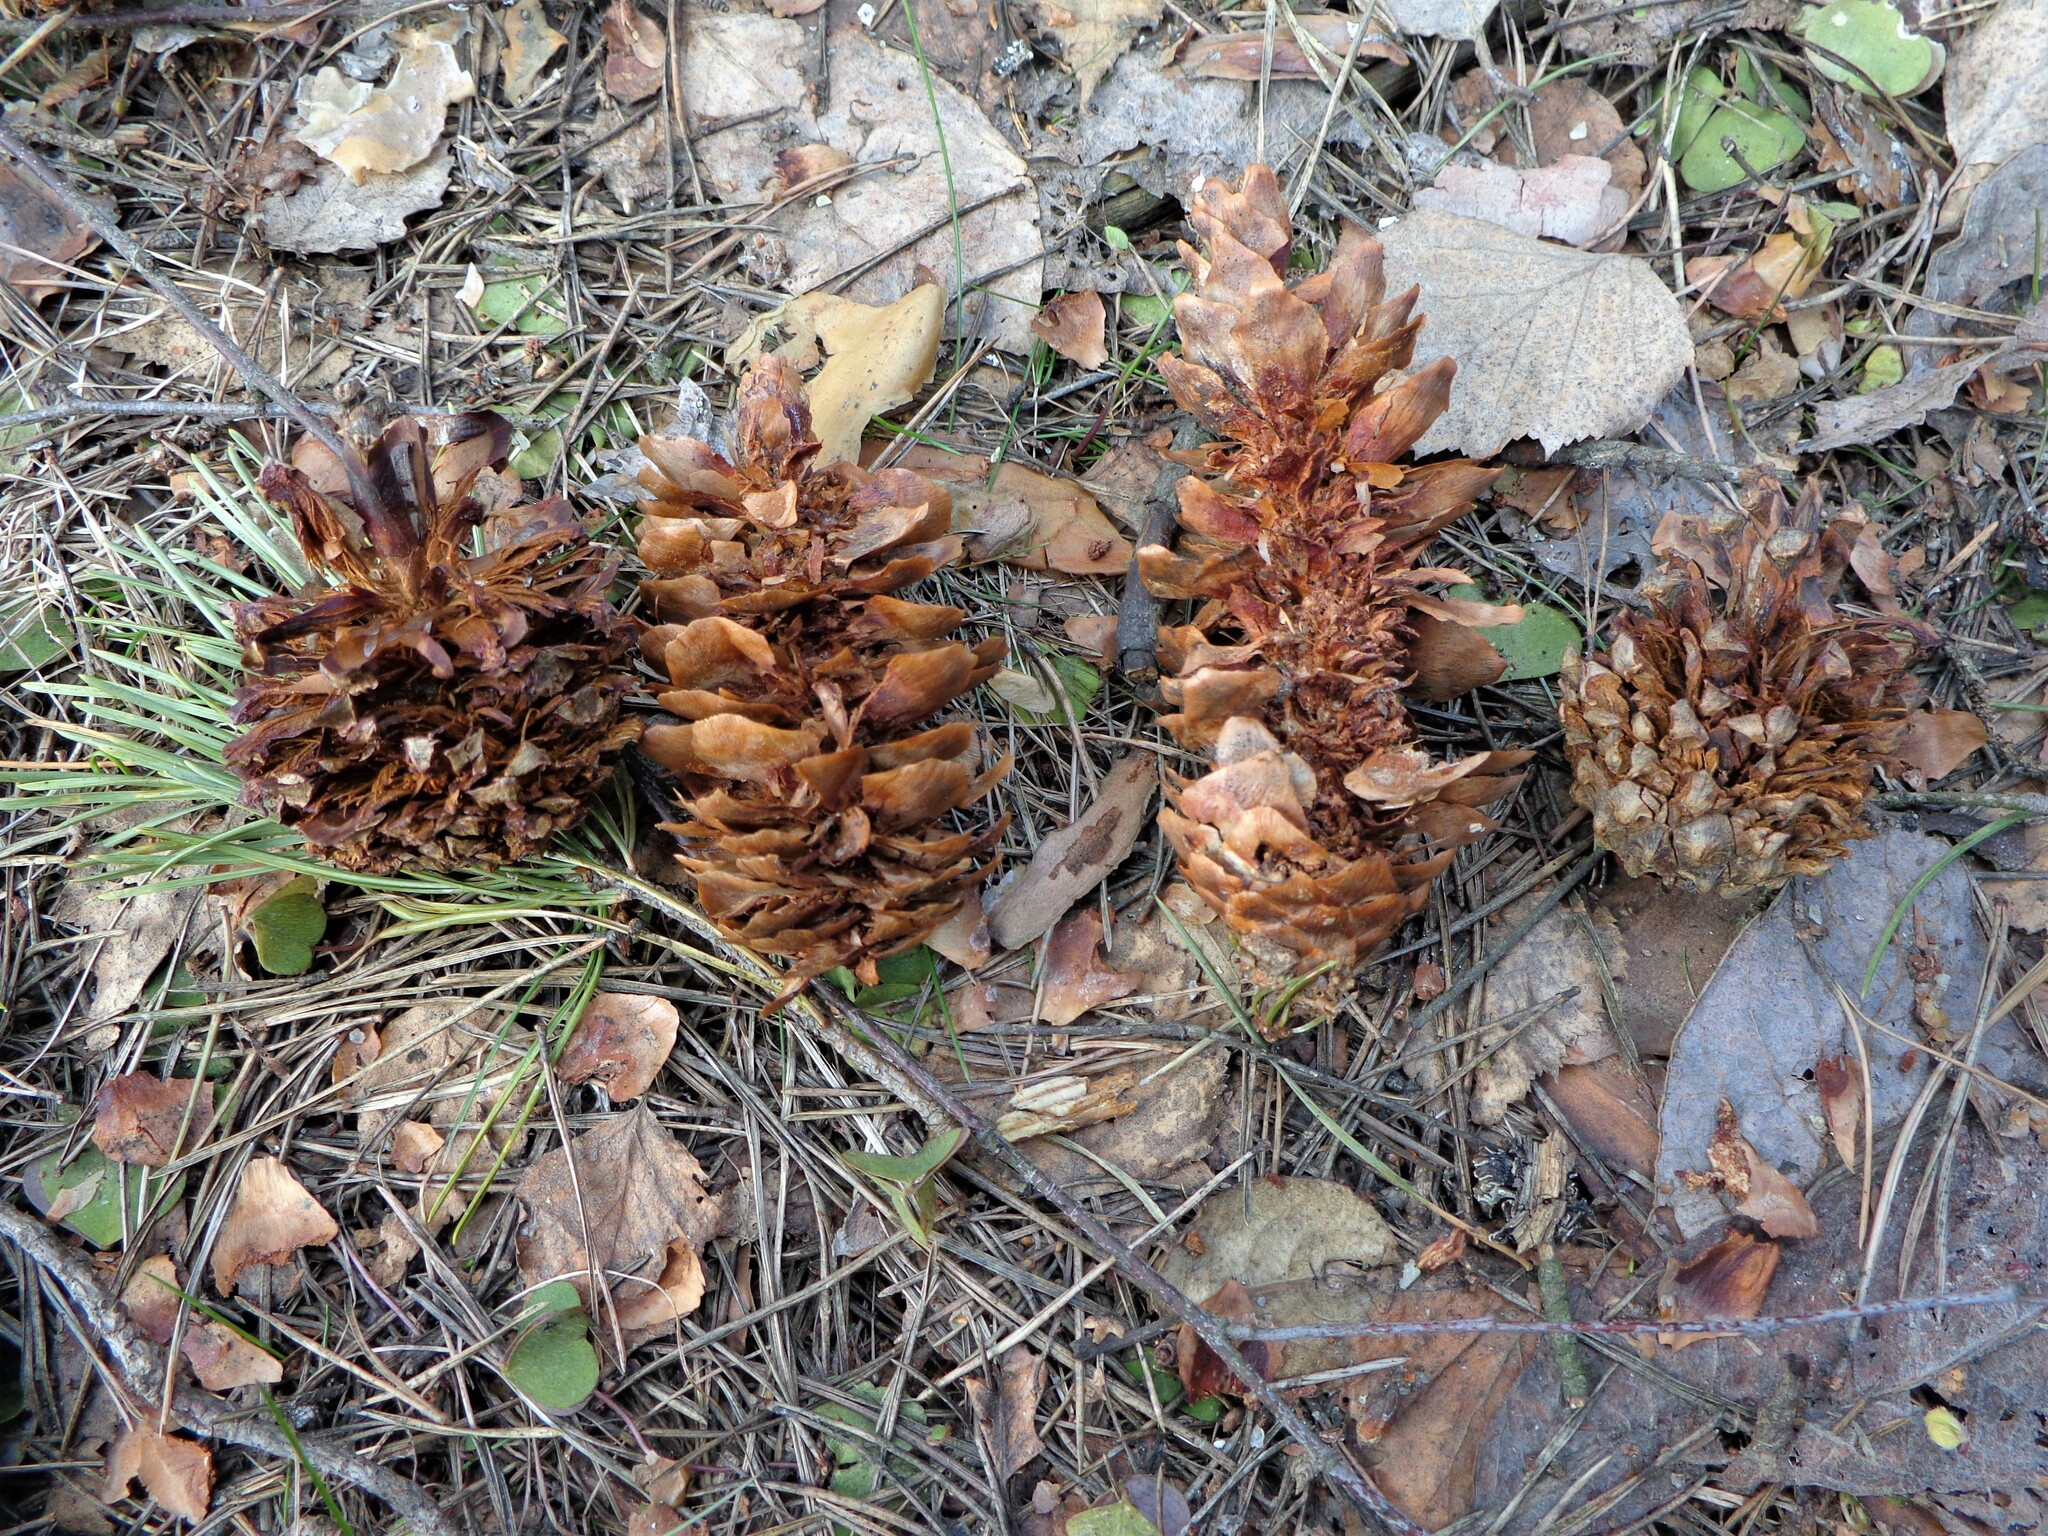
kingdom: Animalia
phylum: Chordata
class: Aves
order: Piciformes
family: Picidae
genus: Dendrocopos
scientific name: Dendrocopos major
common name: Great spotted woodpecker
